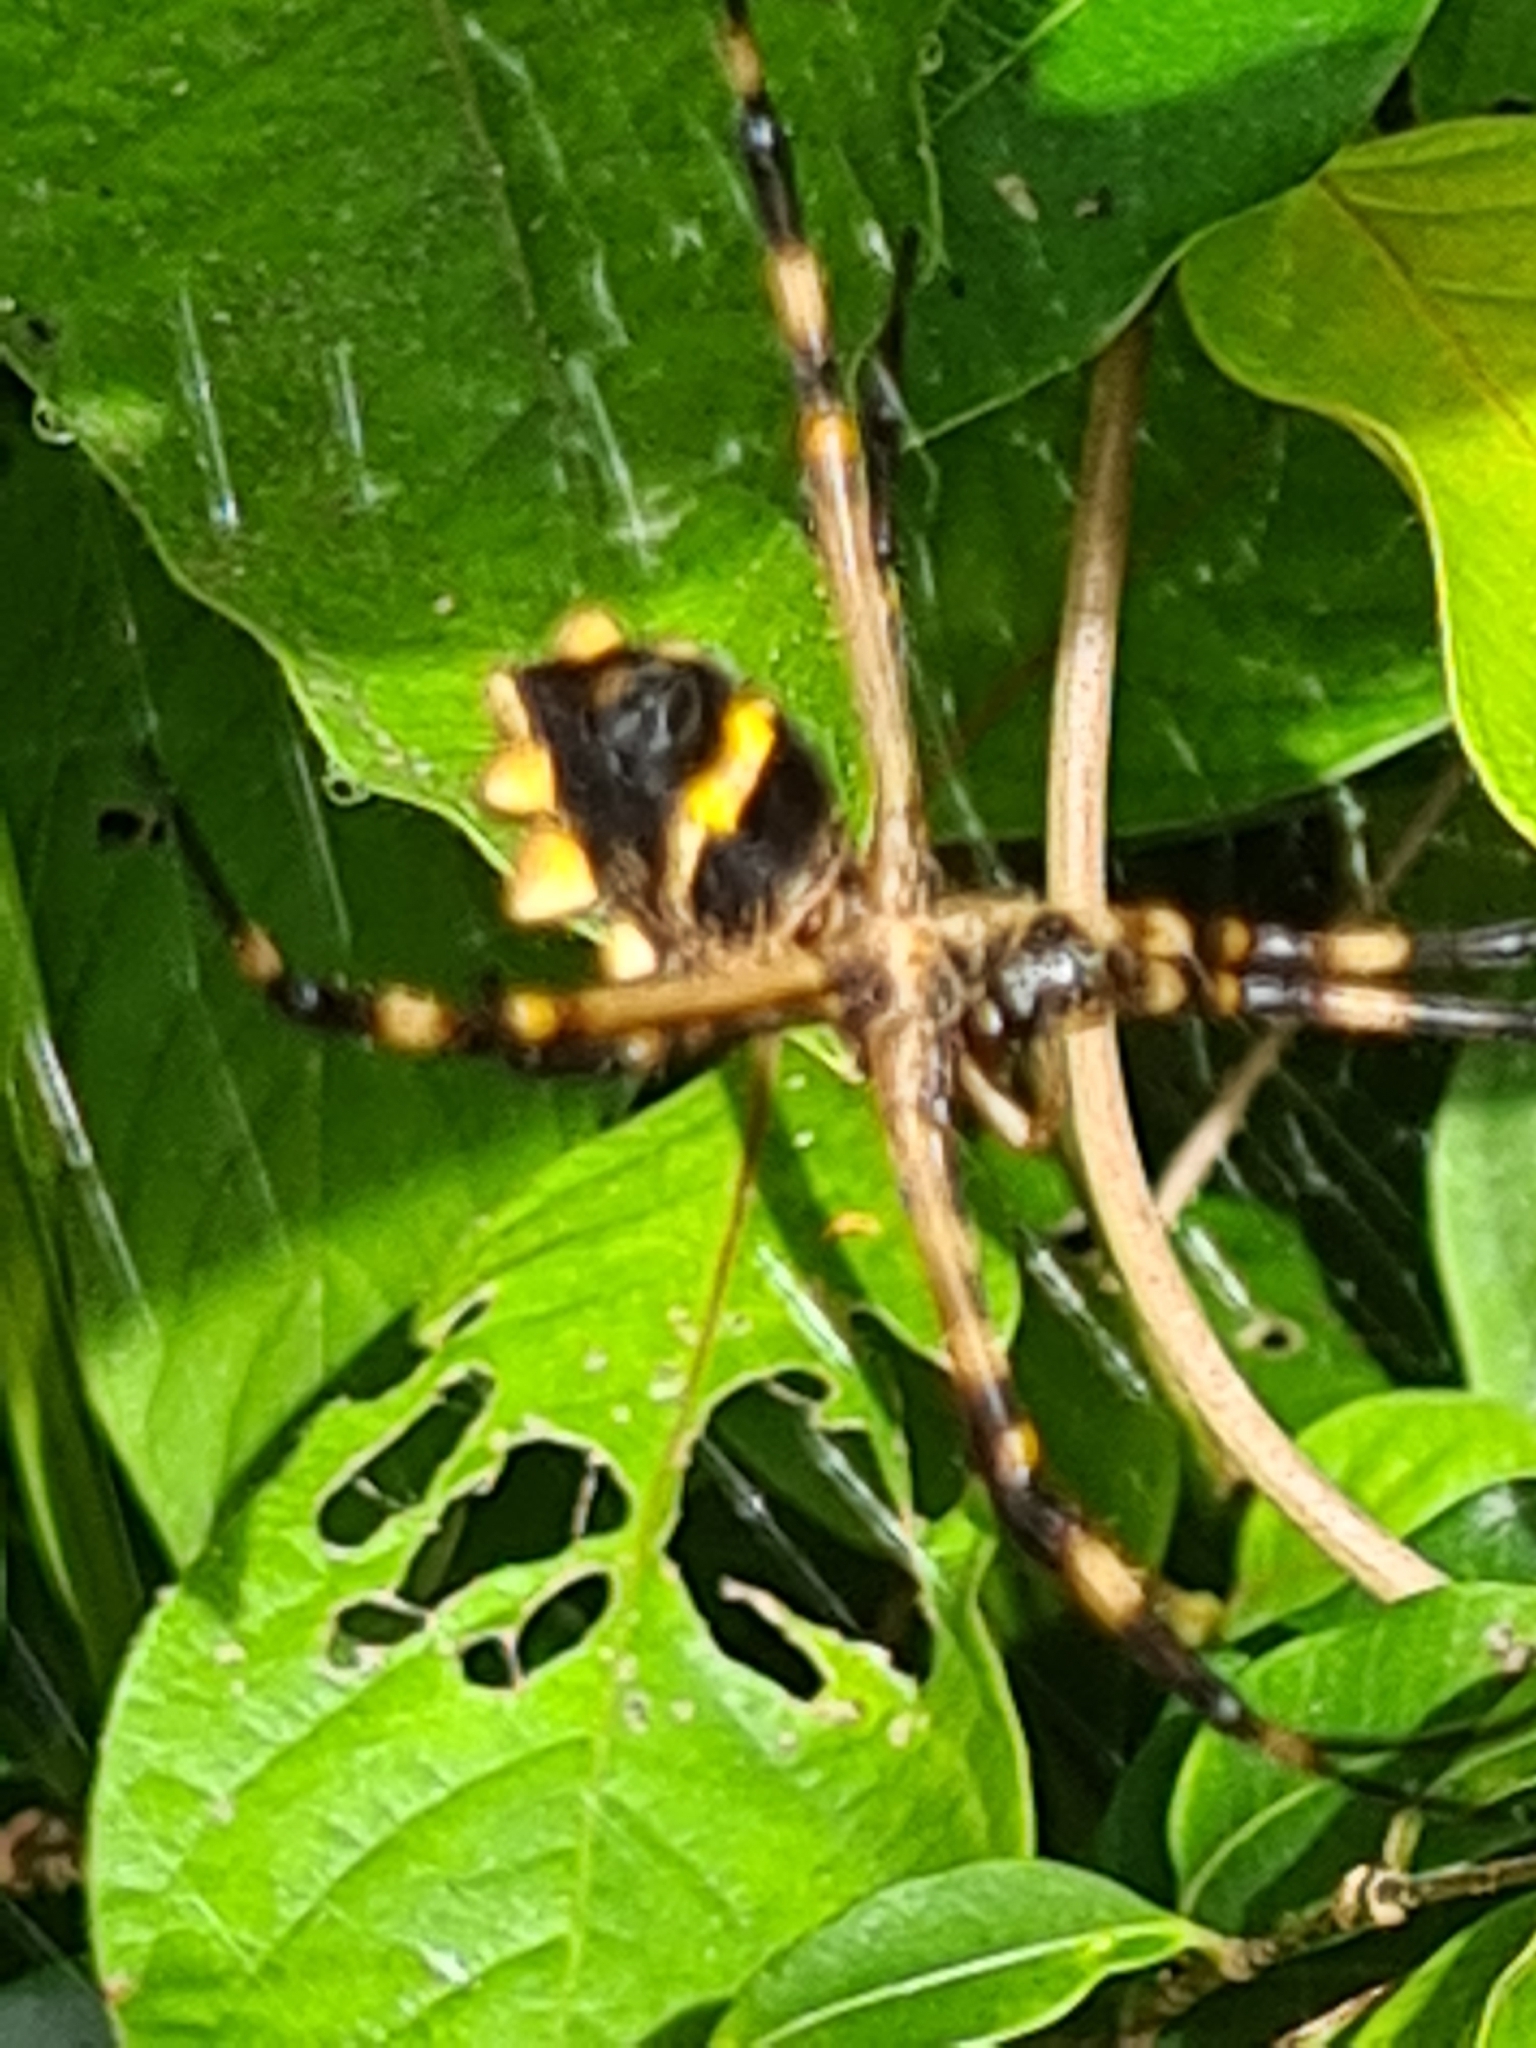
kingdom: Animalia
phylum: Arthropoda
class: Arachnida
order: Araneae
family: Araneidae
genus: Argiope
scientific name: Argiope argentata
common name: Orb weavers
